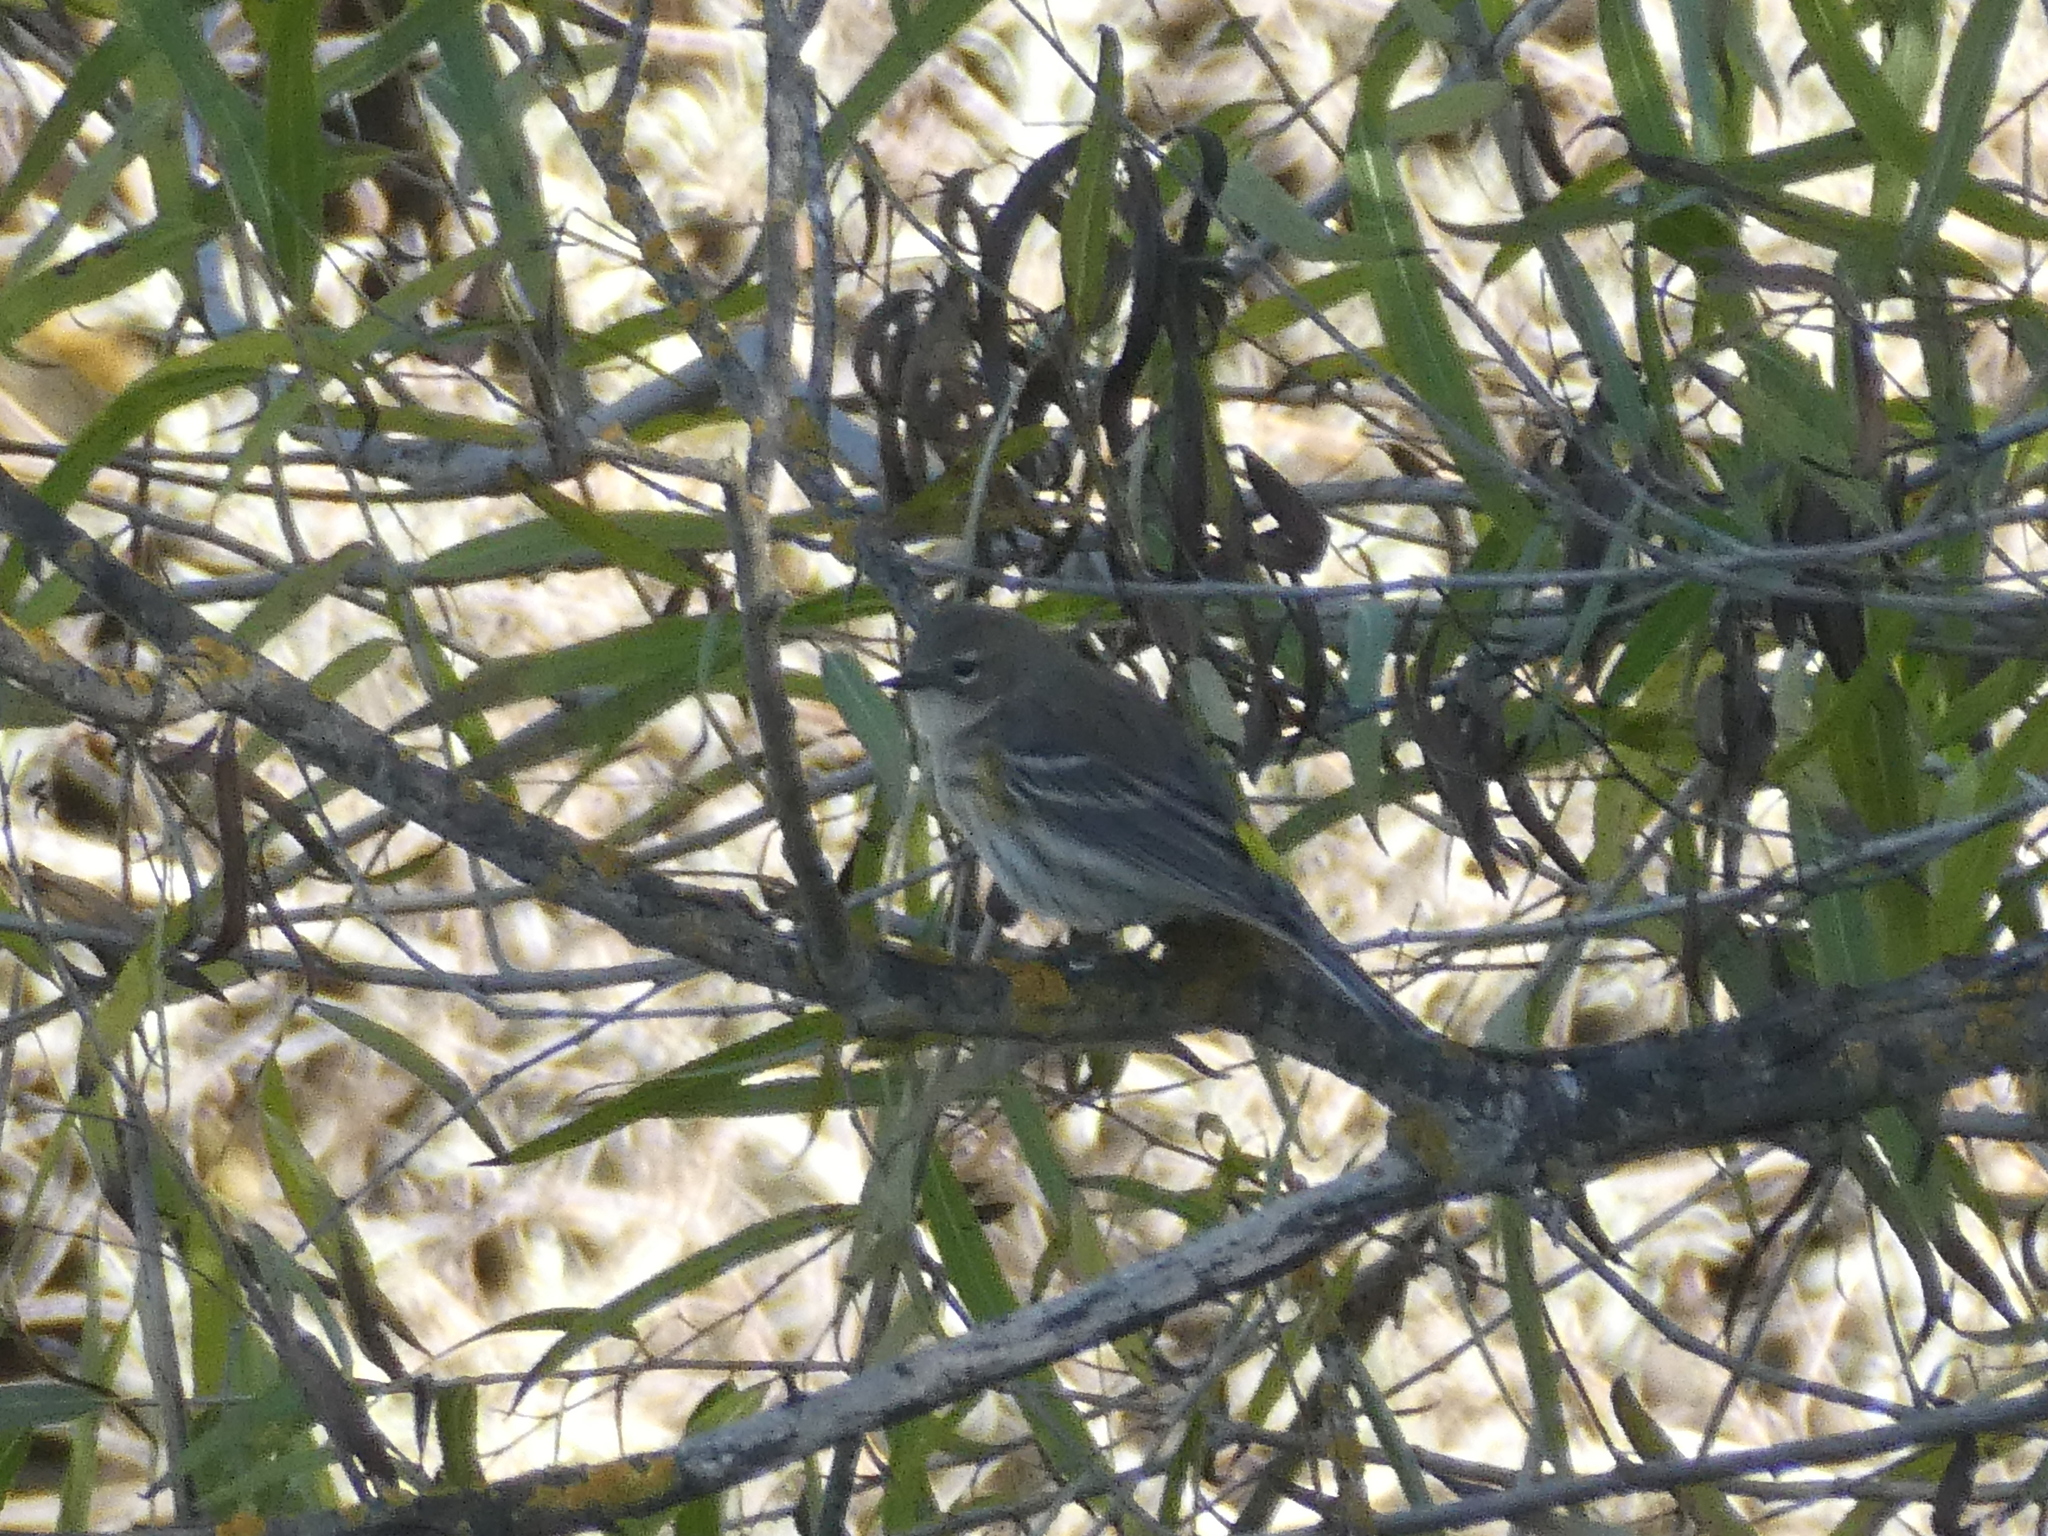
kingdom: Animalia
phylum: Chordata
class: Aves
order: Passeriformes
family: Parulidae
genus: Setophaga
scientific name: Setophaga coronata
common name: Myrtle warbler
